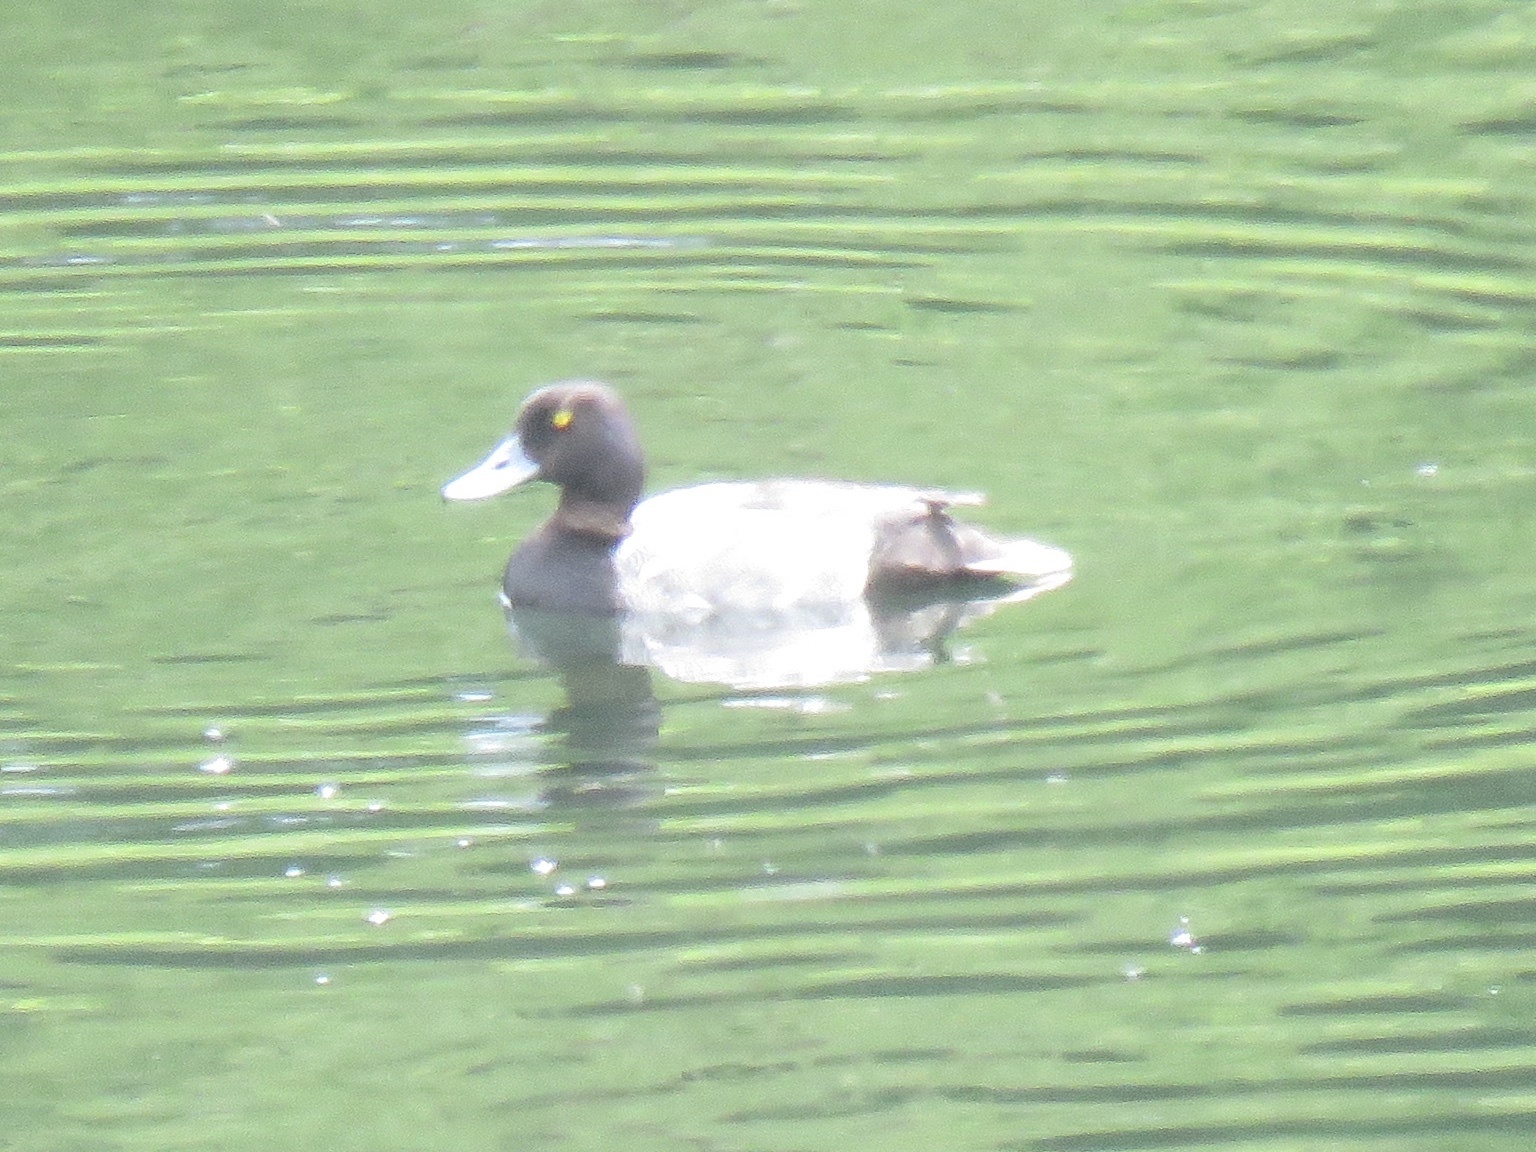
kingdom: Animalia
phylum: Chordata
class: Aves
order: Anseriformes
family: Anatidae
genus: Aythya
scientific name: Aythya affinis
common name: Lesser scaup
